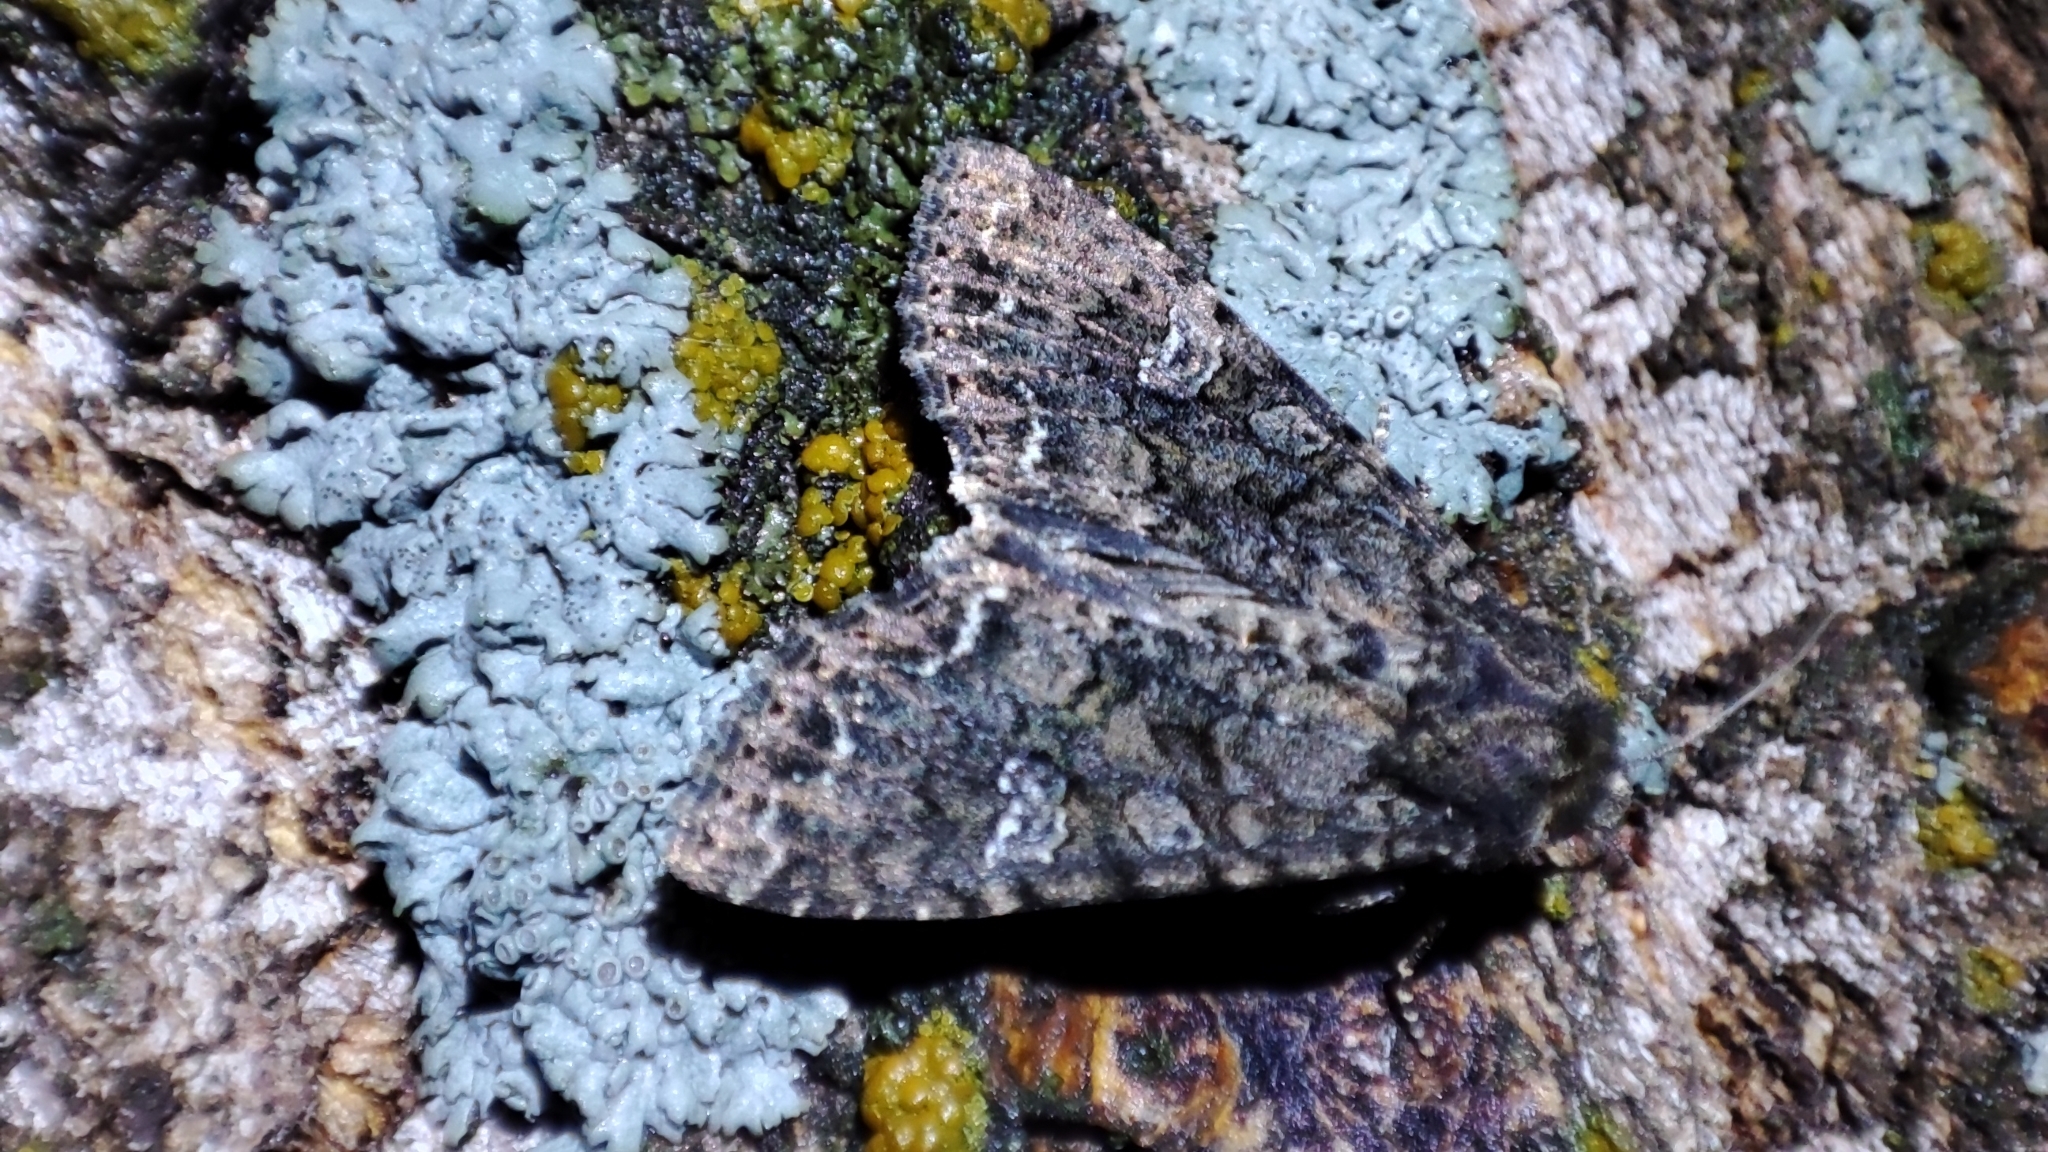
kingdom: Animalia
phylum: Arthropoda
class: Insecta
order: Lepidoptera
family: Noctuidae
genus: Mamestra
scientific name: Mamestra brassicae
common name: Cabbage moth
